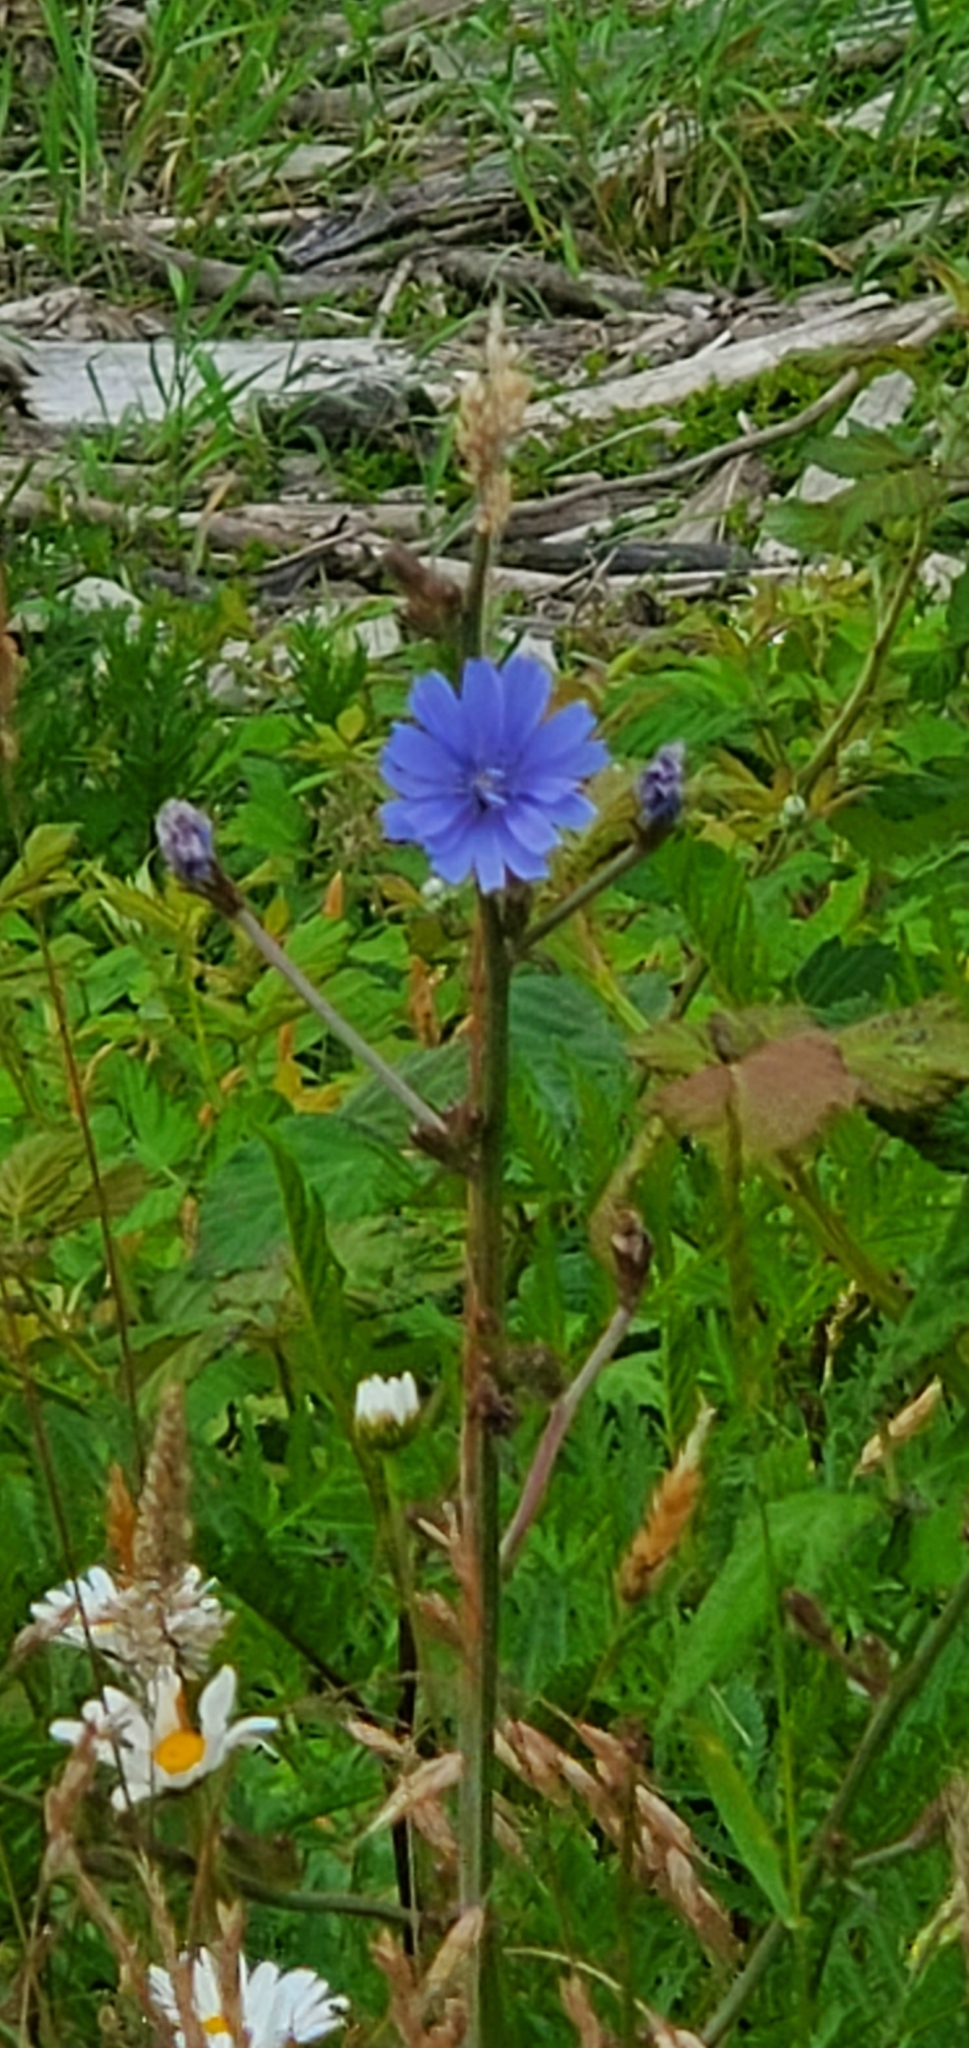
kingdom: Plantae
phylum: Tracheophyta
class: Magnoliopsida
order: Asterales
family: Asteraceae
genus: Cichorium
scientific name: Cichorium intybus
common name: Chicory
